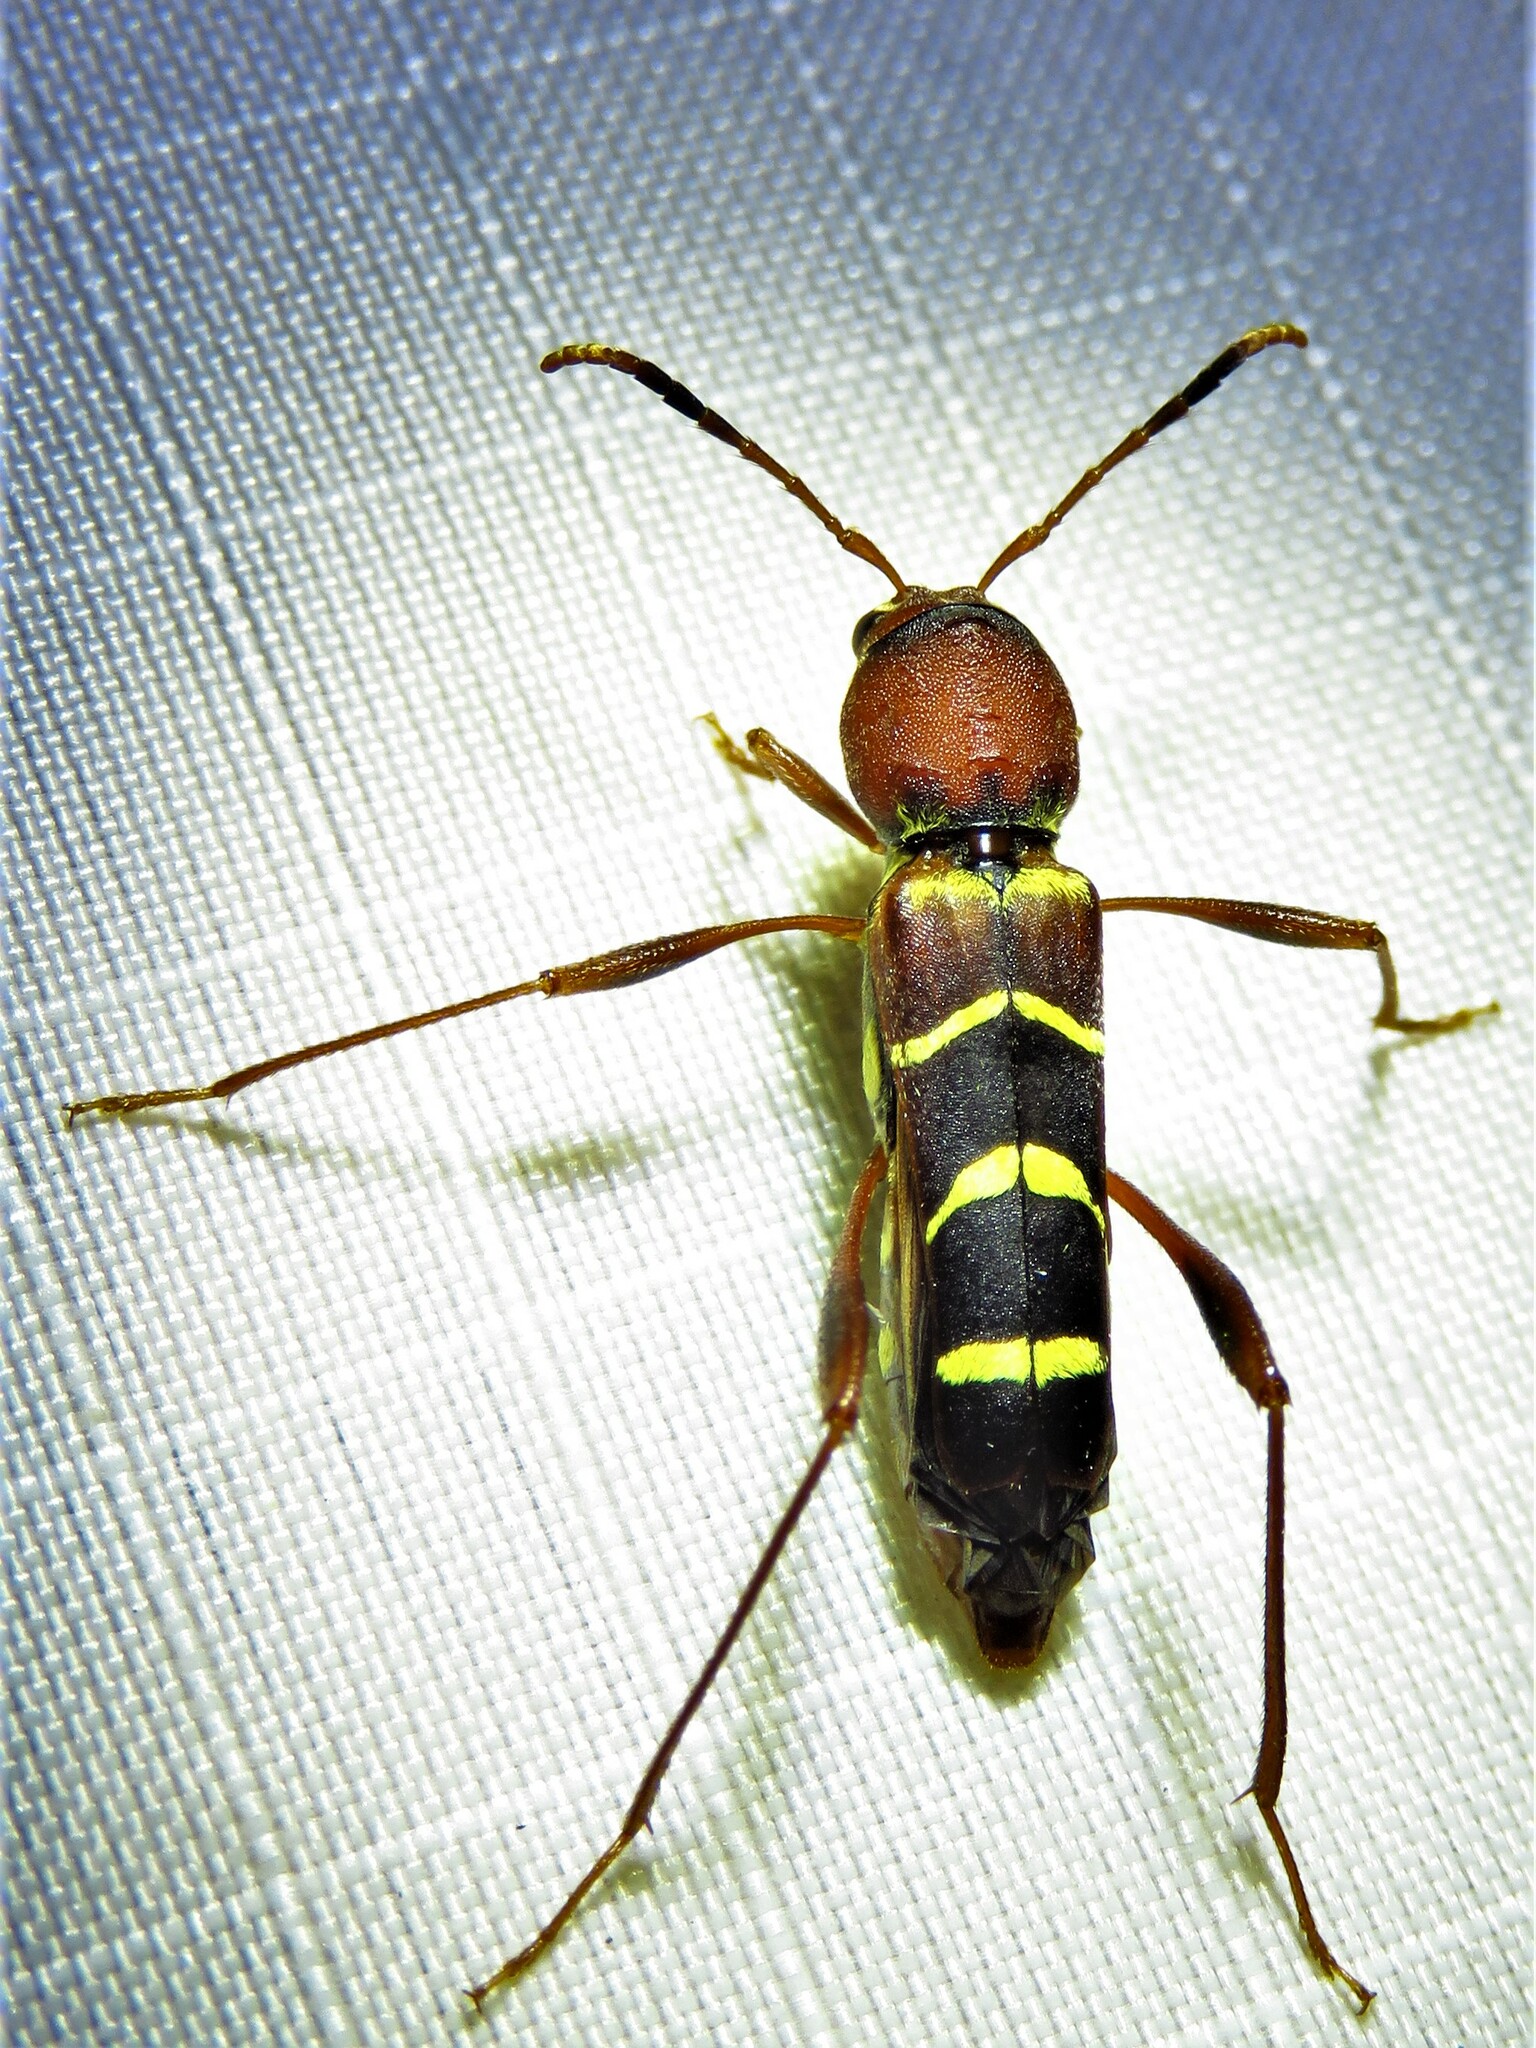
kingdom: Animalia
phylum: Arthropoda
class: Insecta
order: Coleoptera
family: Cerambycidae
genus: Neoclytus
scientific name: Neoclytus acuminatus
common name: Read-headed ash borer
